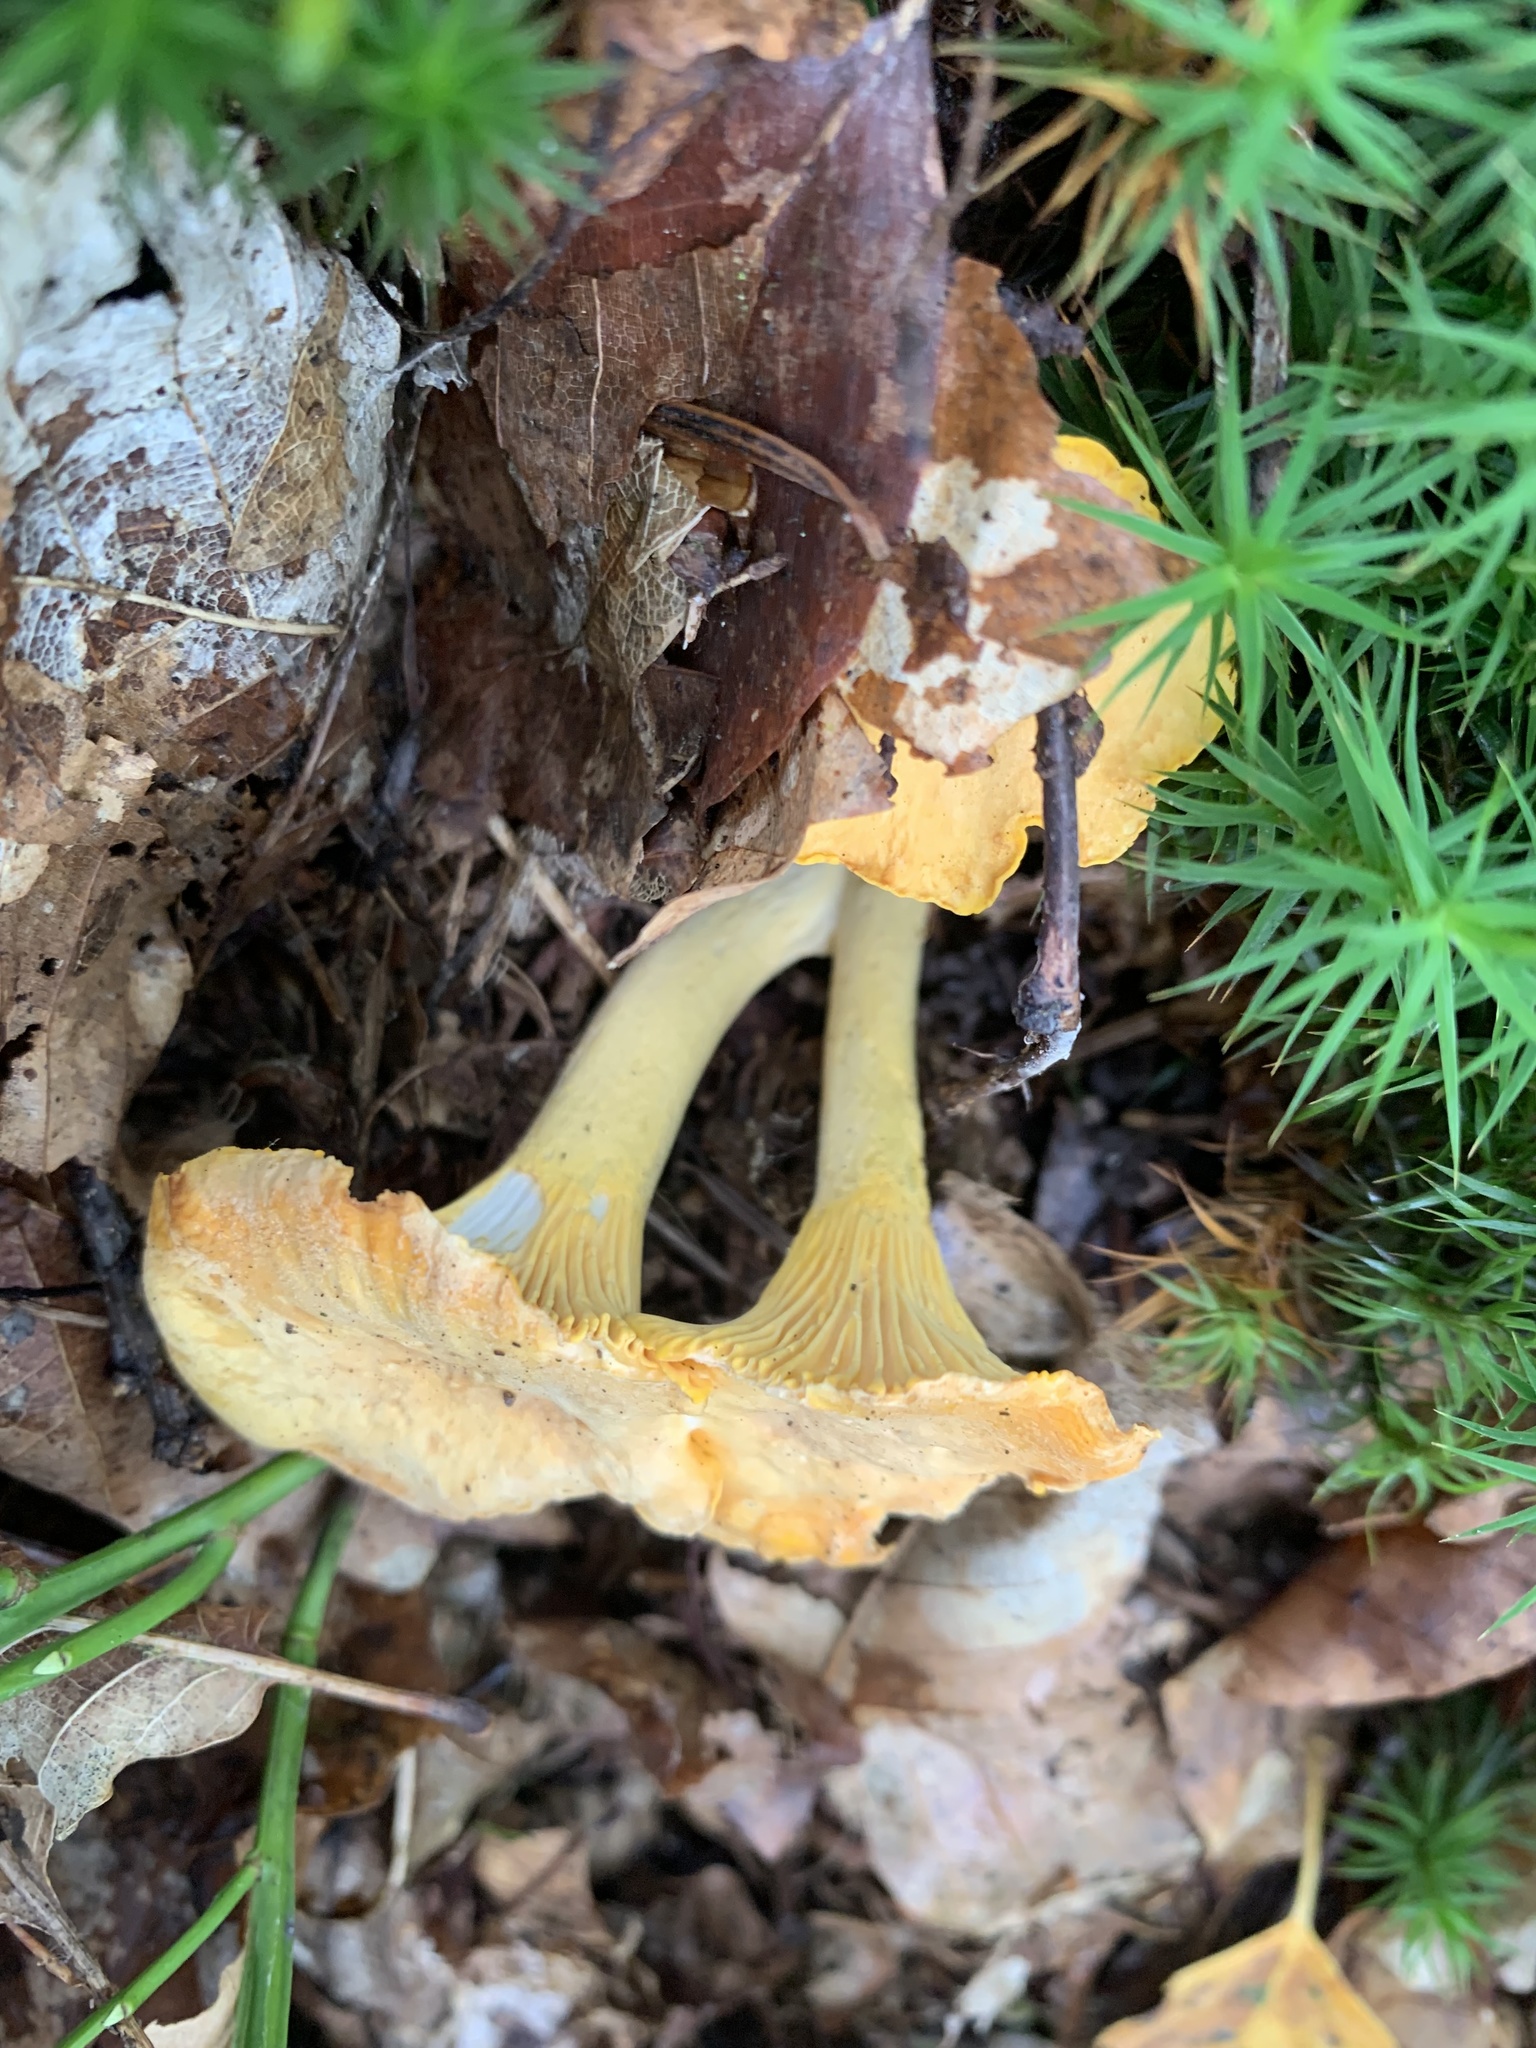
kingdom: Fungi
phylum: Basidiomycota
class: Agaricomycetes
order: Cantharellales
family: Hydnaceae
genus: Cantharellus
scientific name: Cantharellus cibarius
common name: Chanterelle
